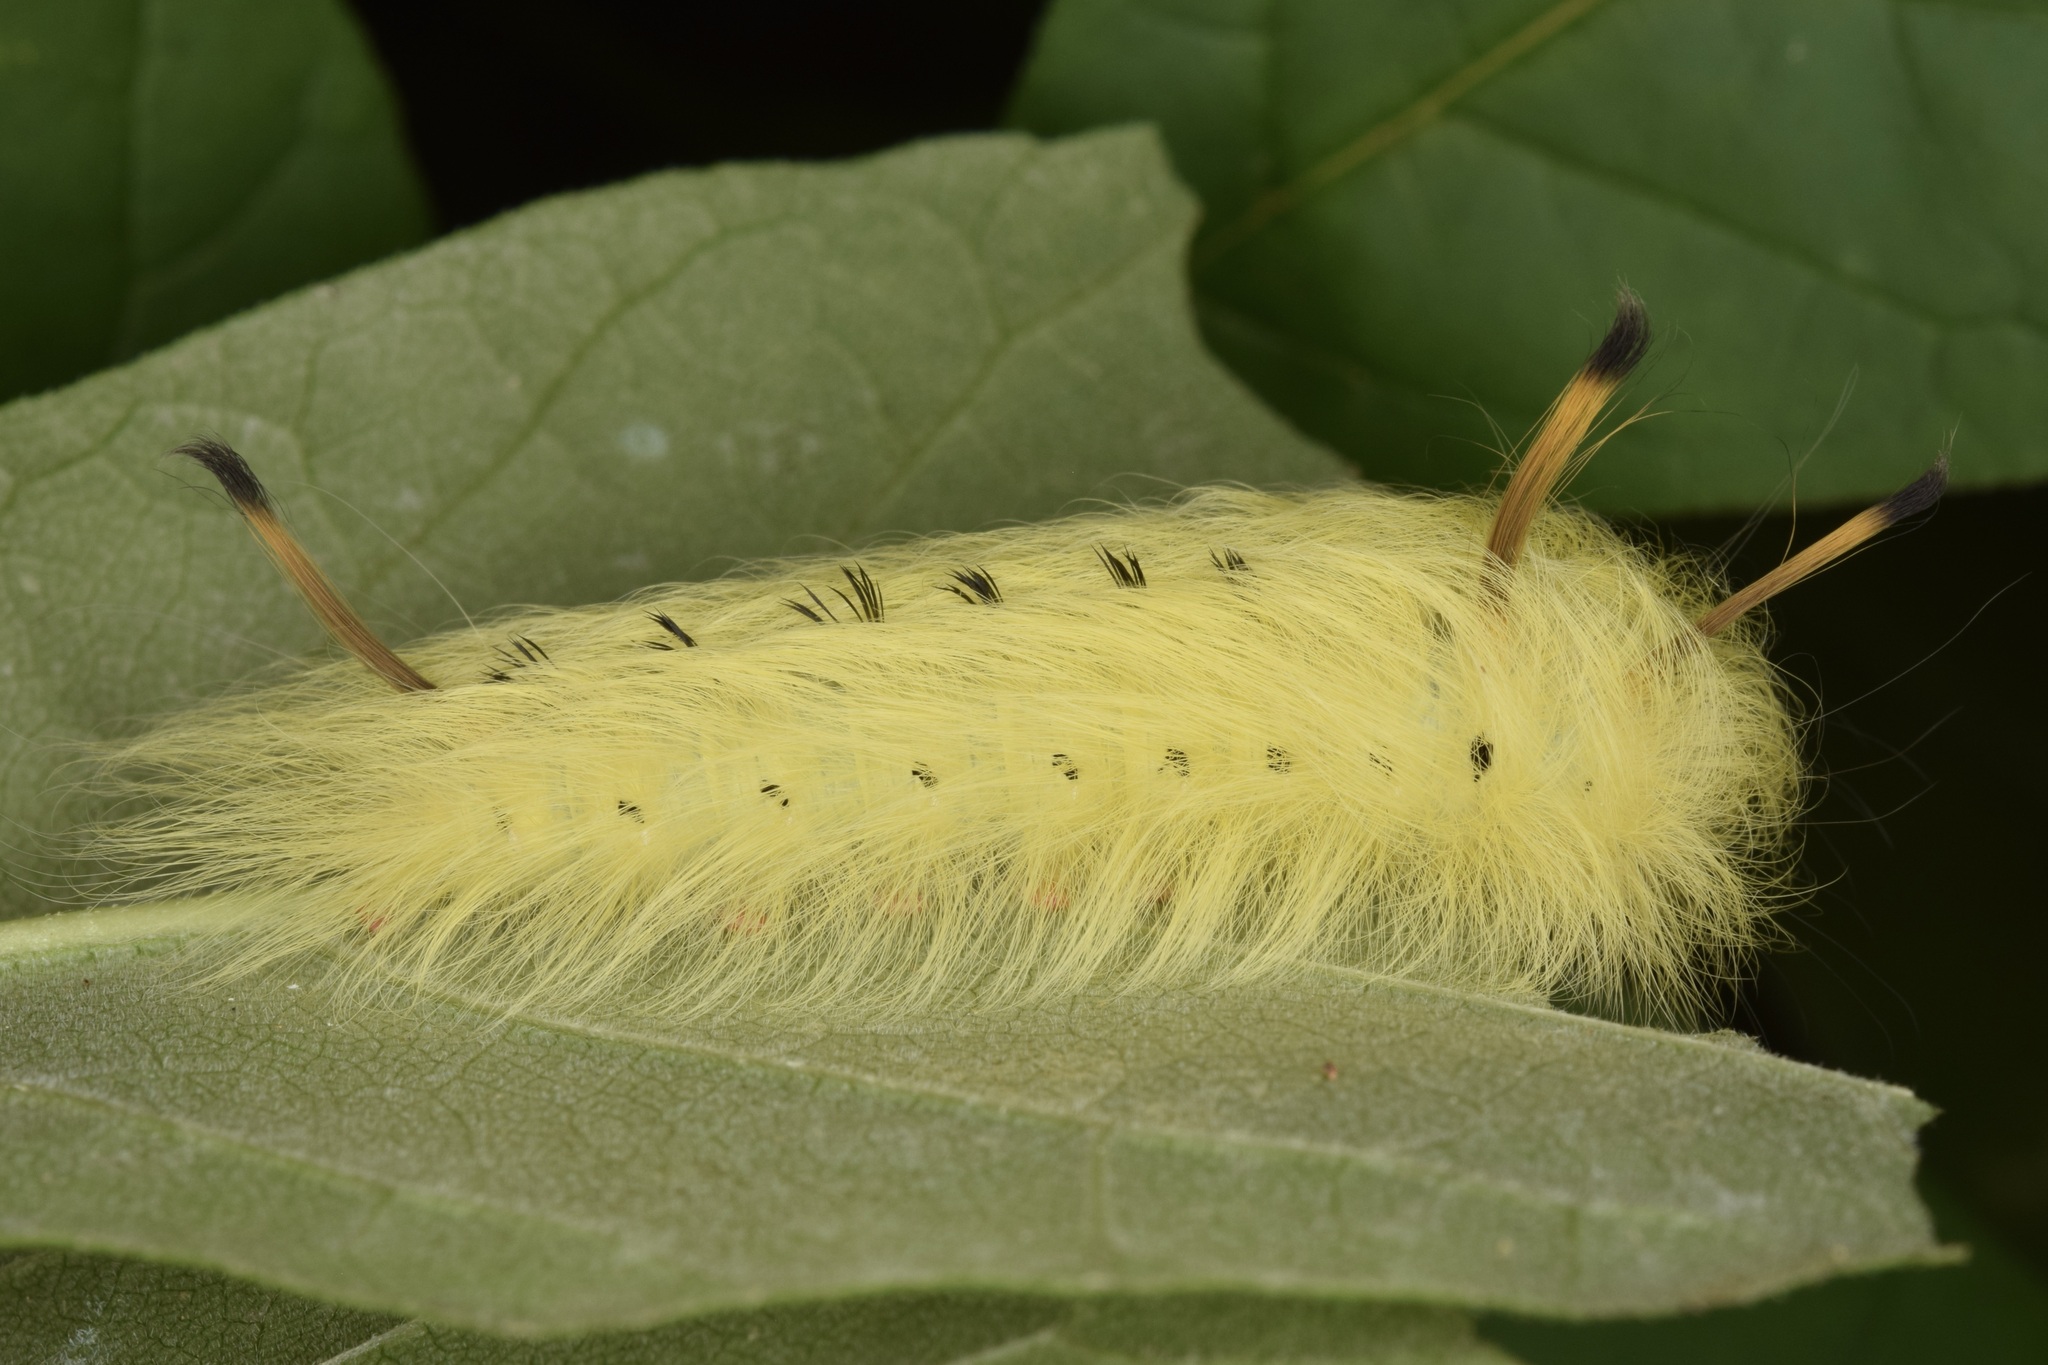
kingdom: Animalia
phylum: Arthropoda
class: Insecta
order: Lepidoptera
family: Apatelodidae
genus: Hygrochroa
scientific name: Hygrochroa Apatelodes torrefacta
